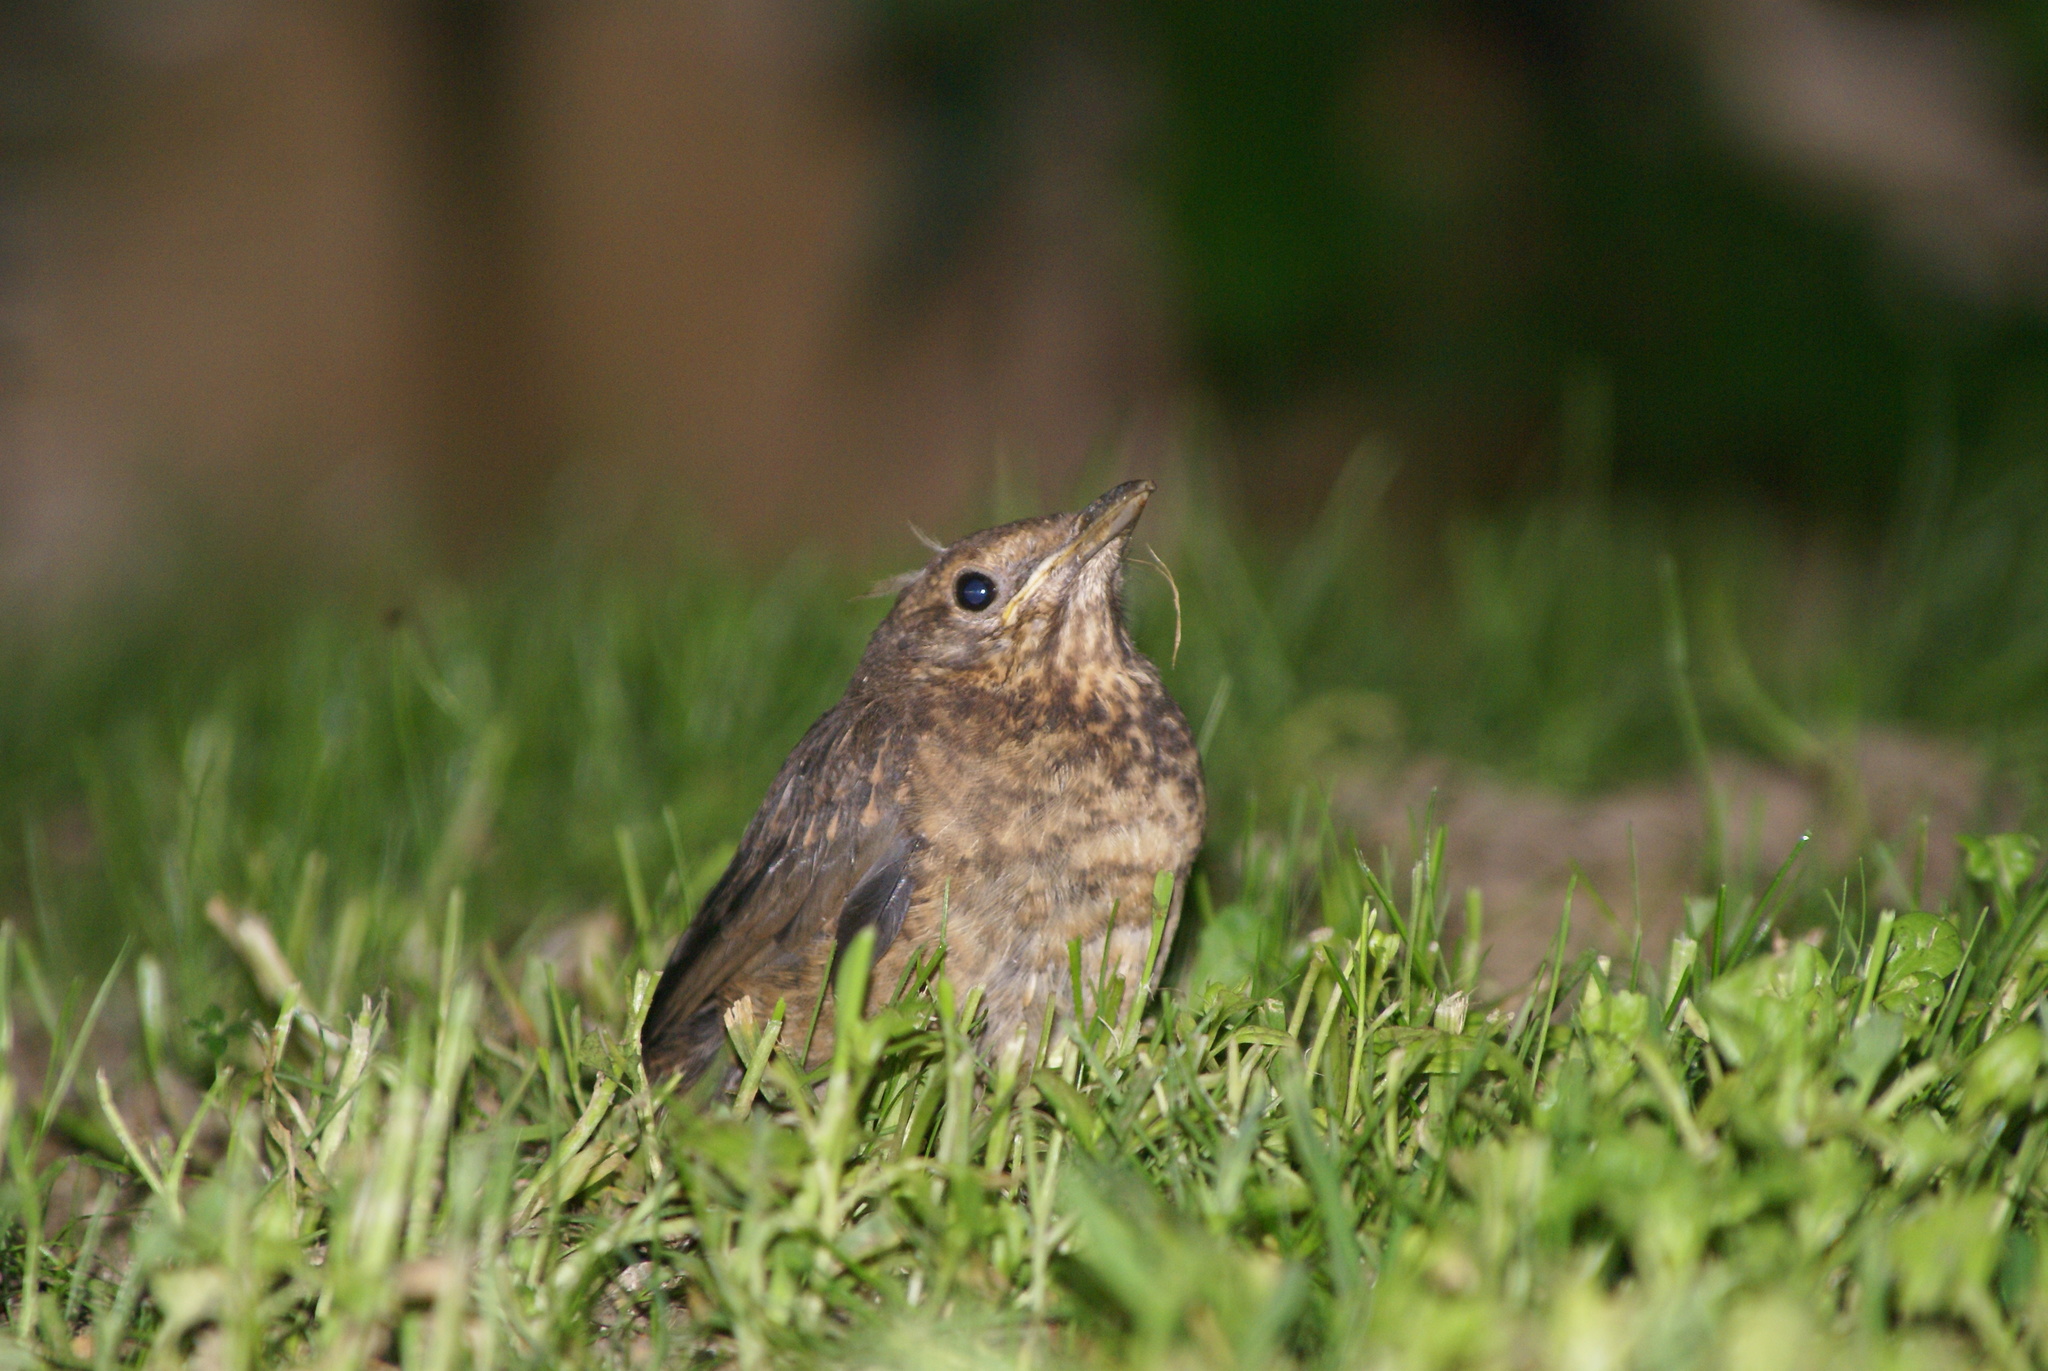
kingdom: Animalia
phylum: Chordata
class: Aves
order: Passeriformes
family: Turdidae
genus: Turdus
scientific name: Turdus merula
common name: Common blackbird
